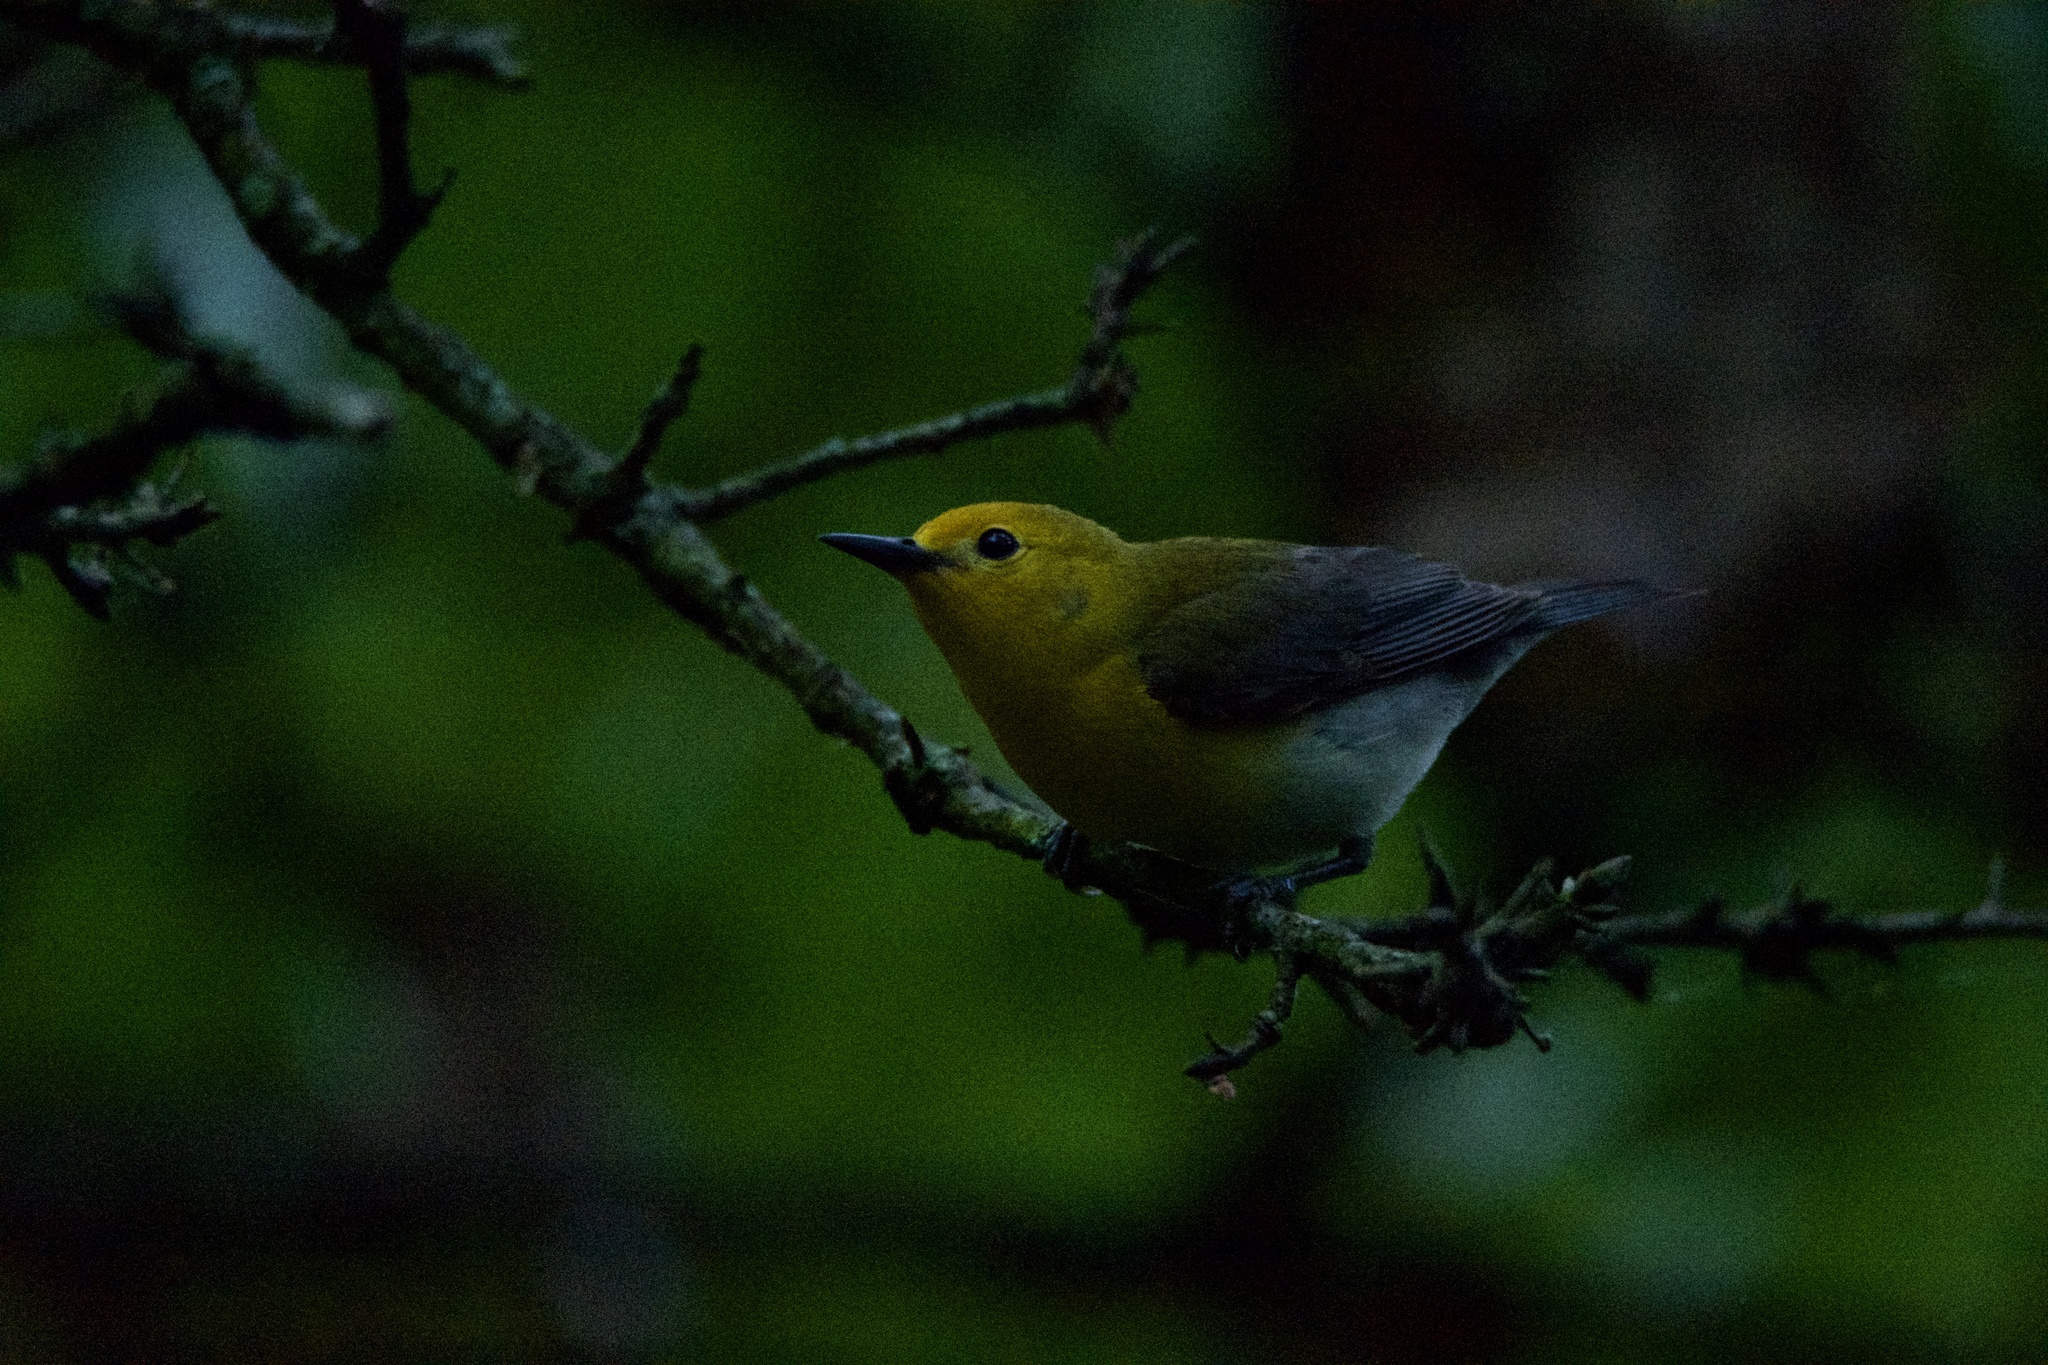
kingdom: Animalia
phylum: Chordata
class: Aves
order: Passeriformes
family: Parulidae
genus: Protonotaria
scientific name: Protonotaria citrea
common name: Prothonotary warbler
